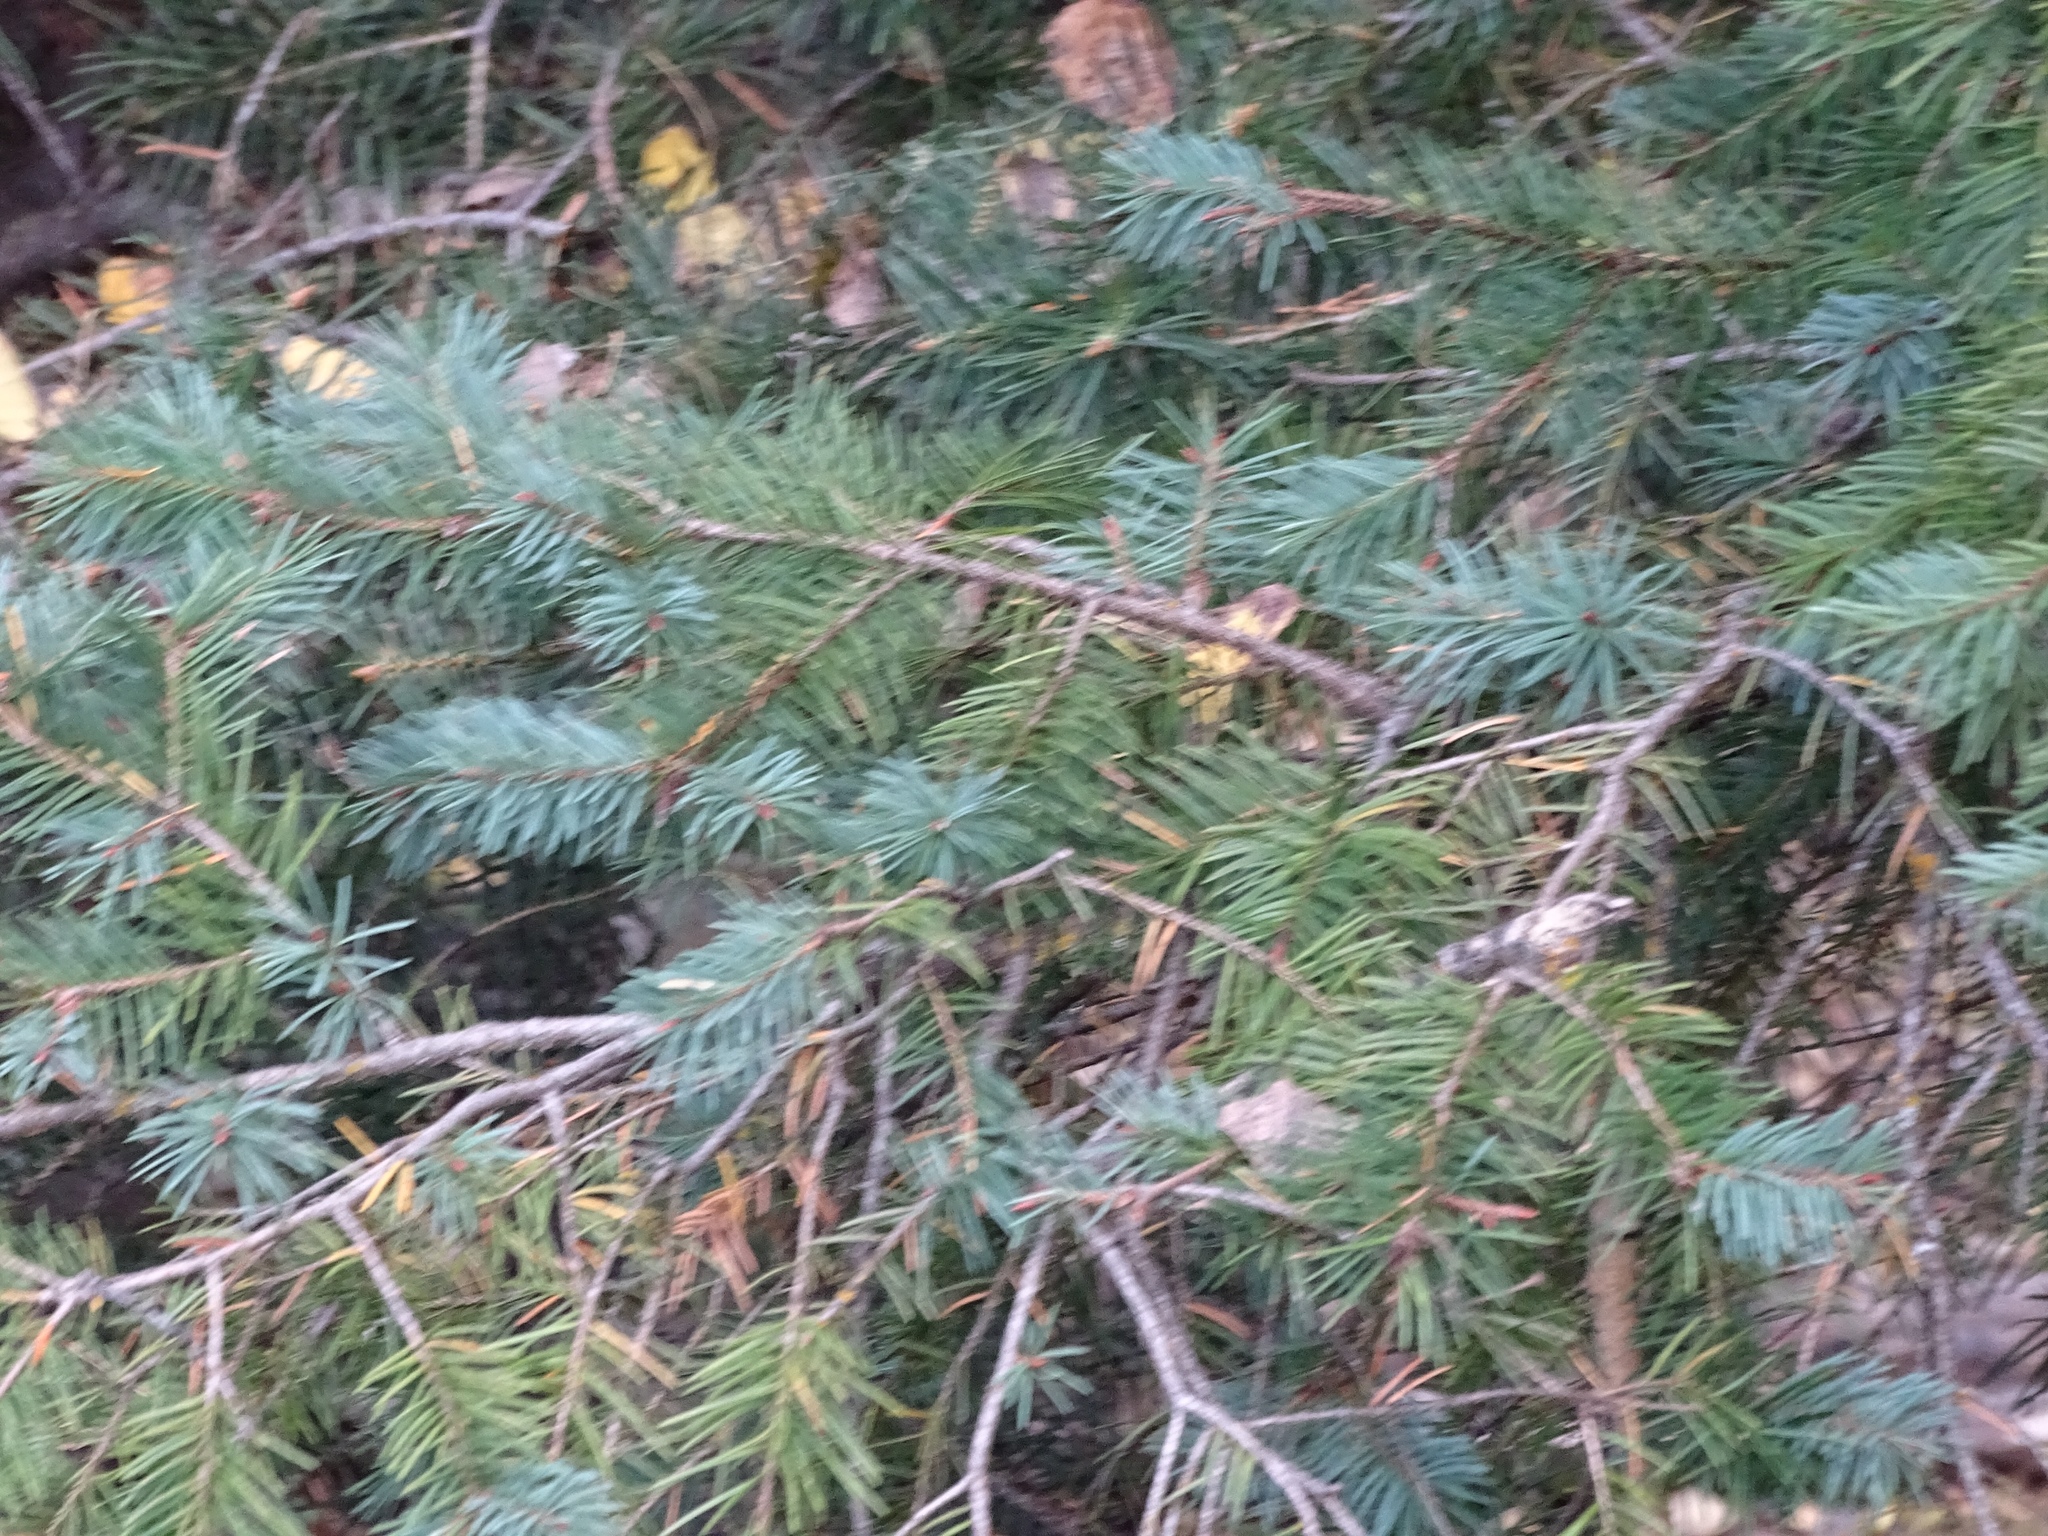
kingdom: Plantae
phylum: Tracheophyta
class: Pinopsida
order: Pinales
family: Pinaceae
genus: Pseudotsuga
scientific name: Pseudotsuga menziesii
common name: Douglas fir
